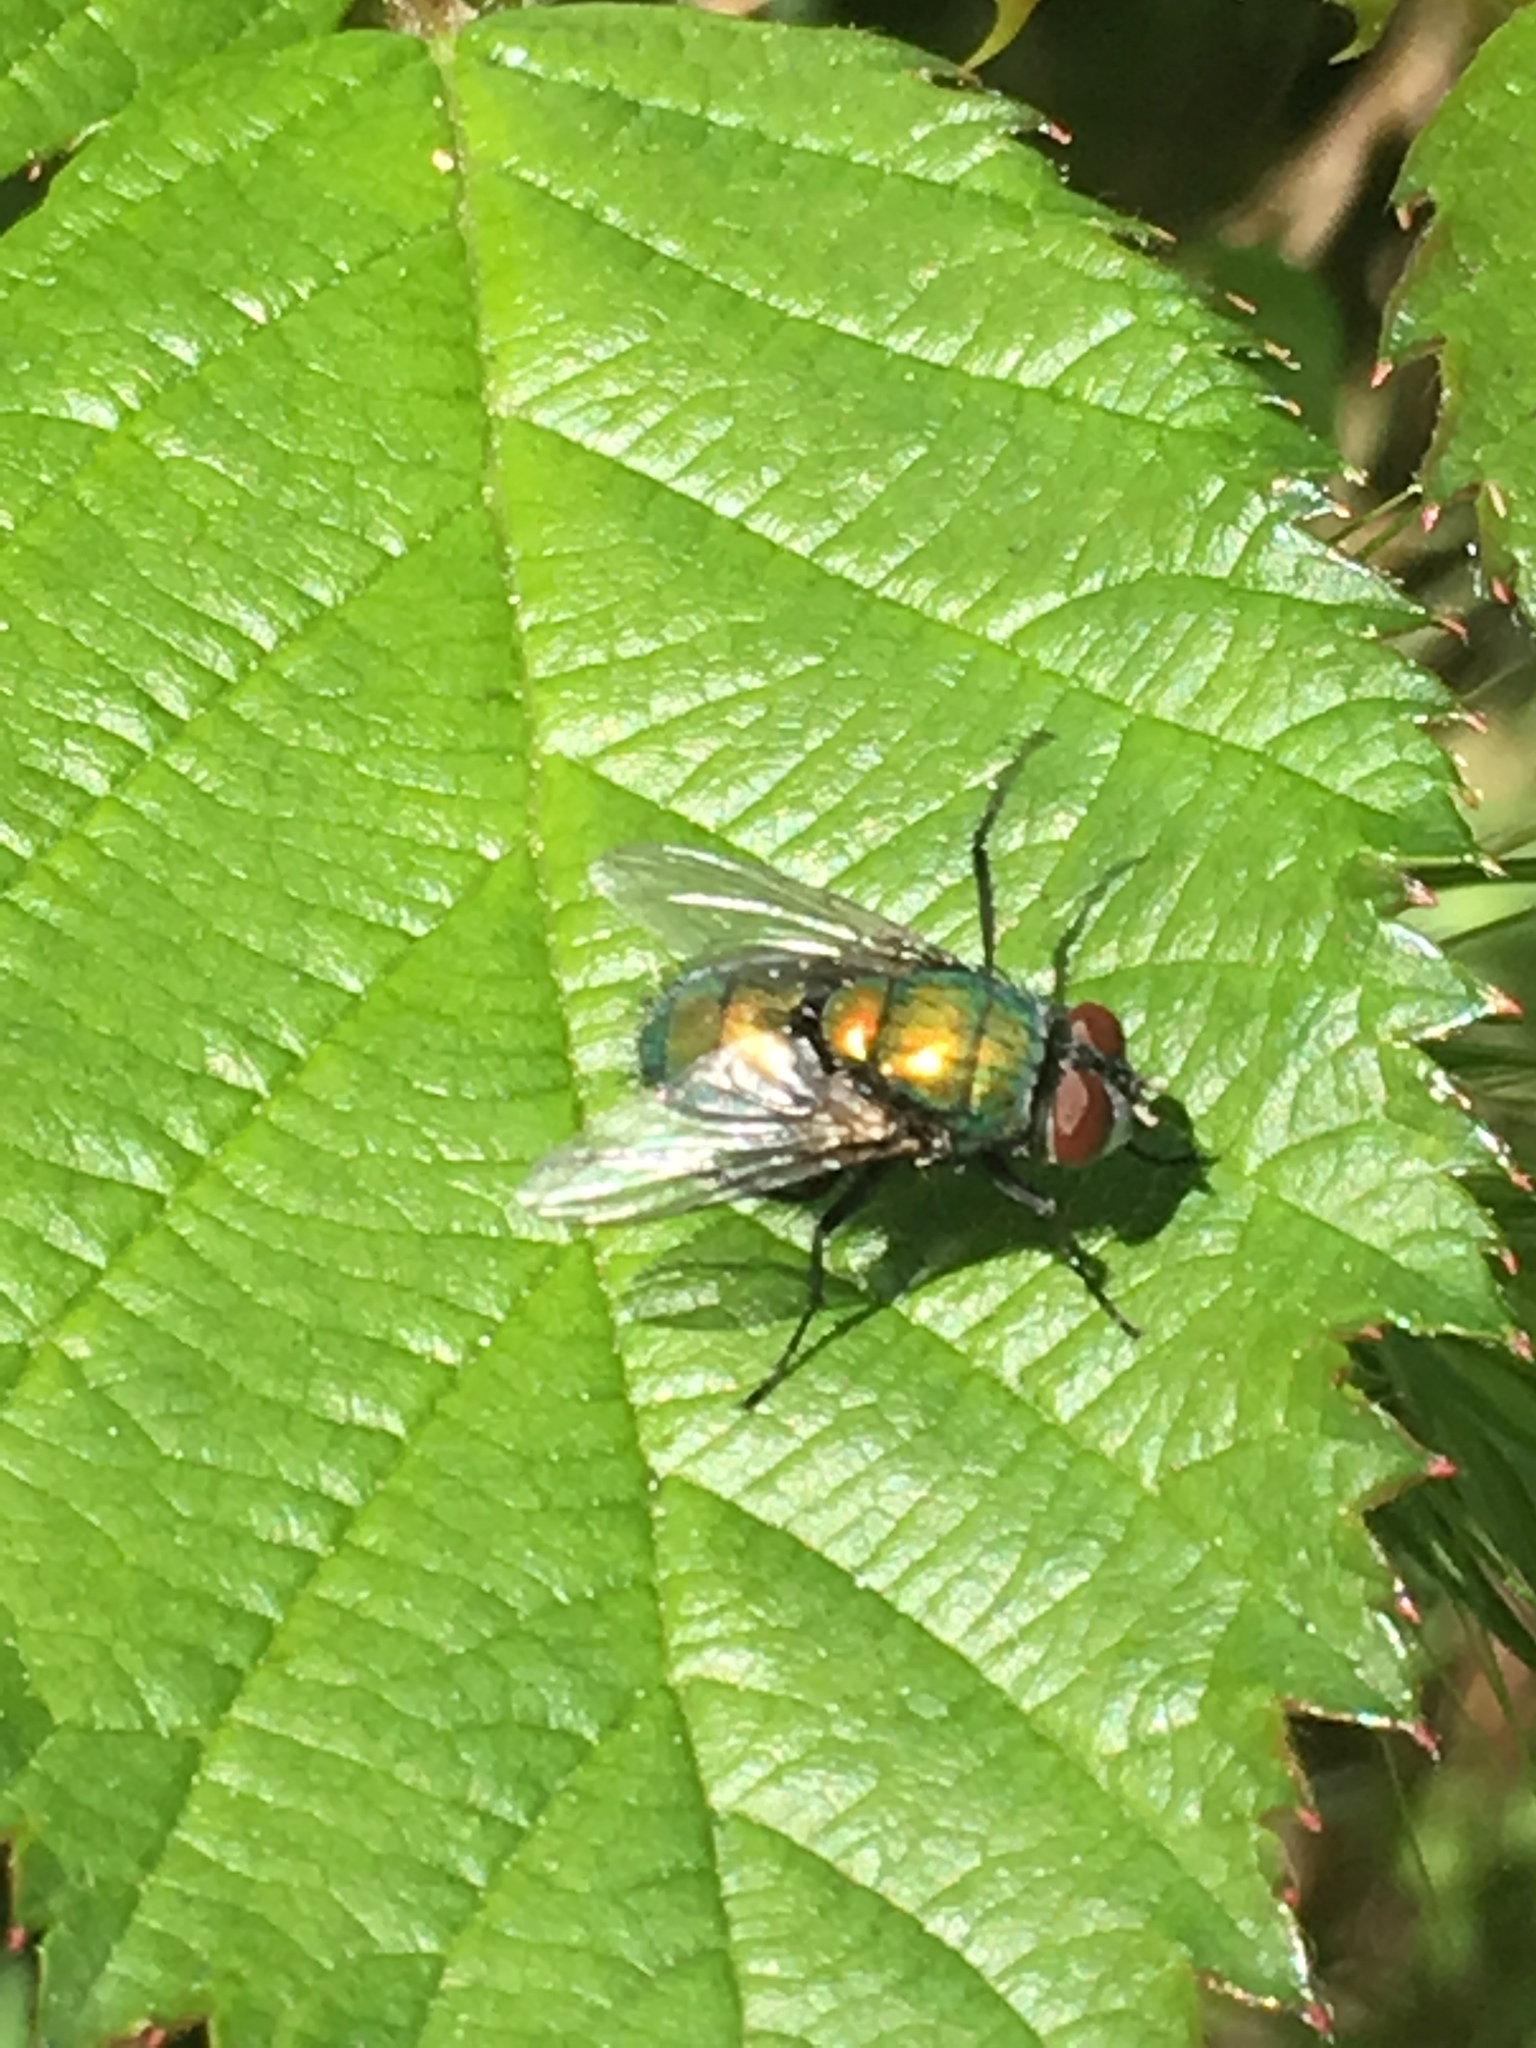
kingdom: Animalia
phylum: Arthropoda
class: Insecta
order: Diptera
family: Calliphoridae
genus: Lucilia
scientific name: Lucilia sericata
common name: Blow fly
